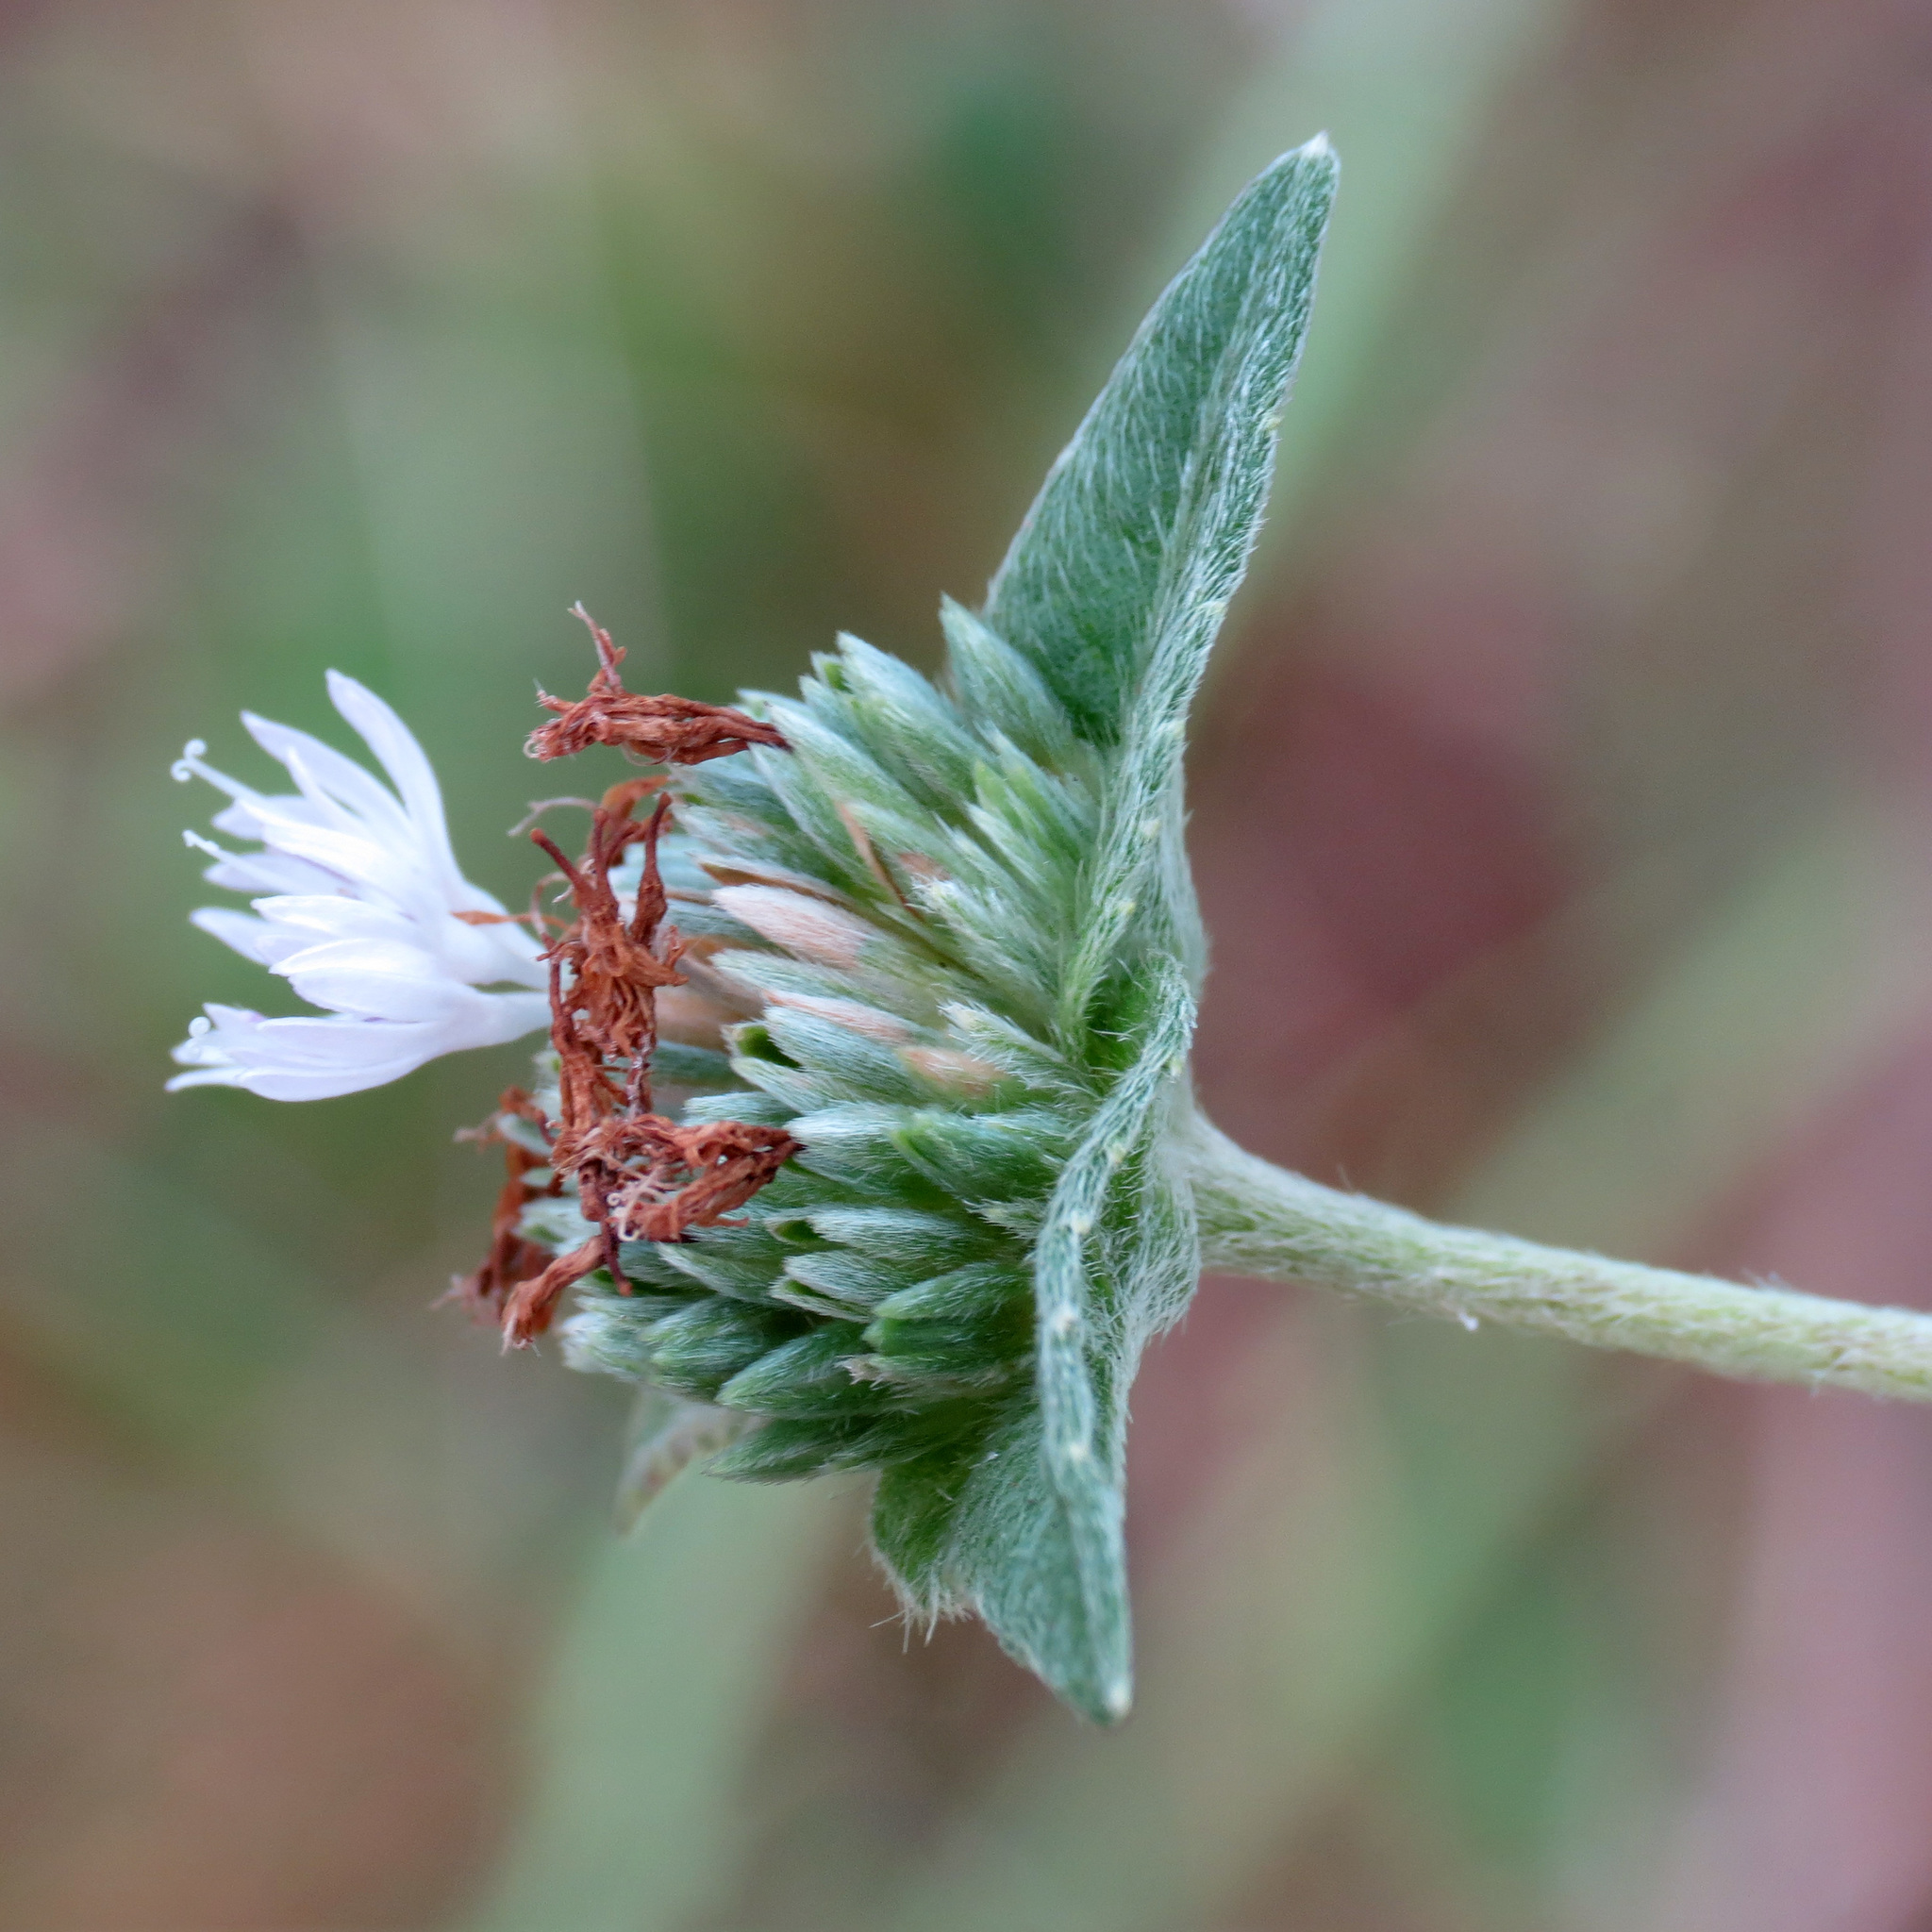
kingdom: Plantae
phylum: Tracheophyta
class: Magnoliopsida
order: Asterales
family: Asteraceae
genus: Elephantopus
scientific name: Elephantopus elatus
